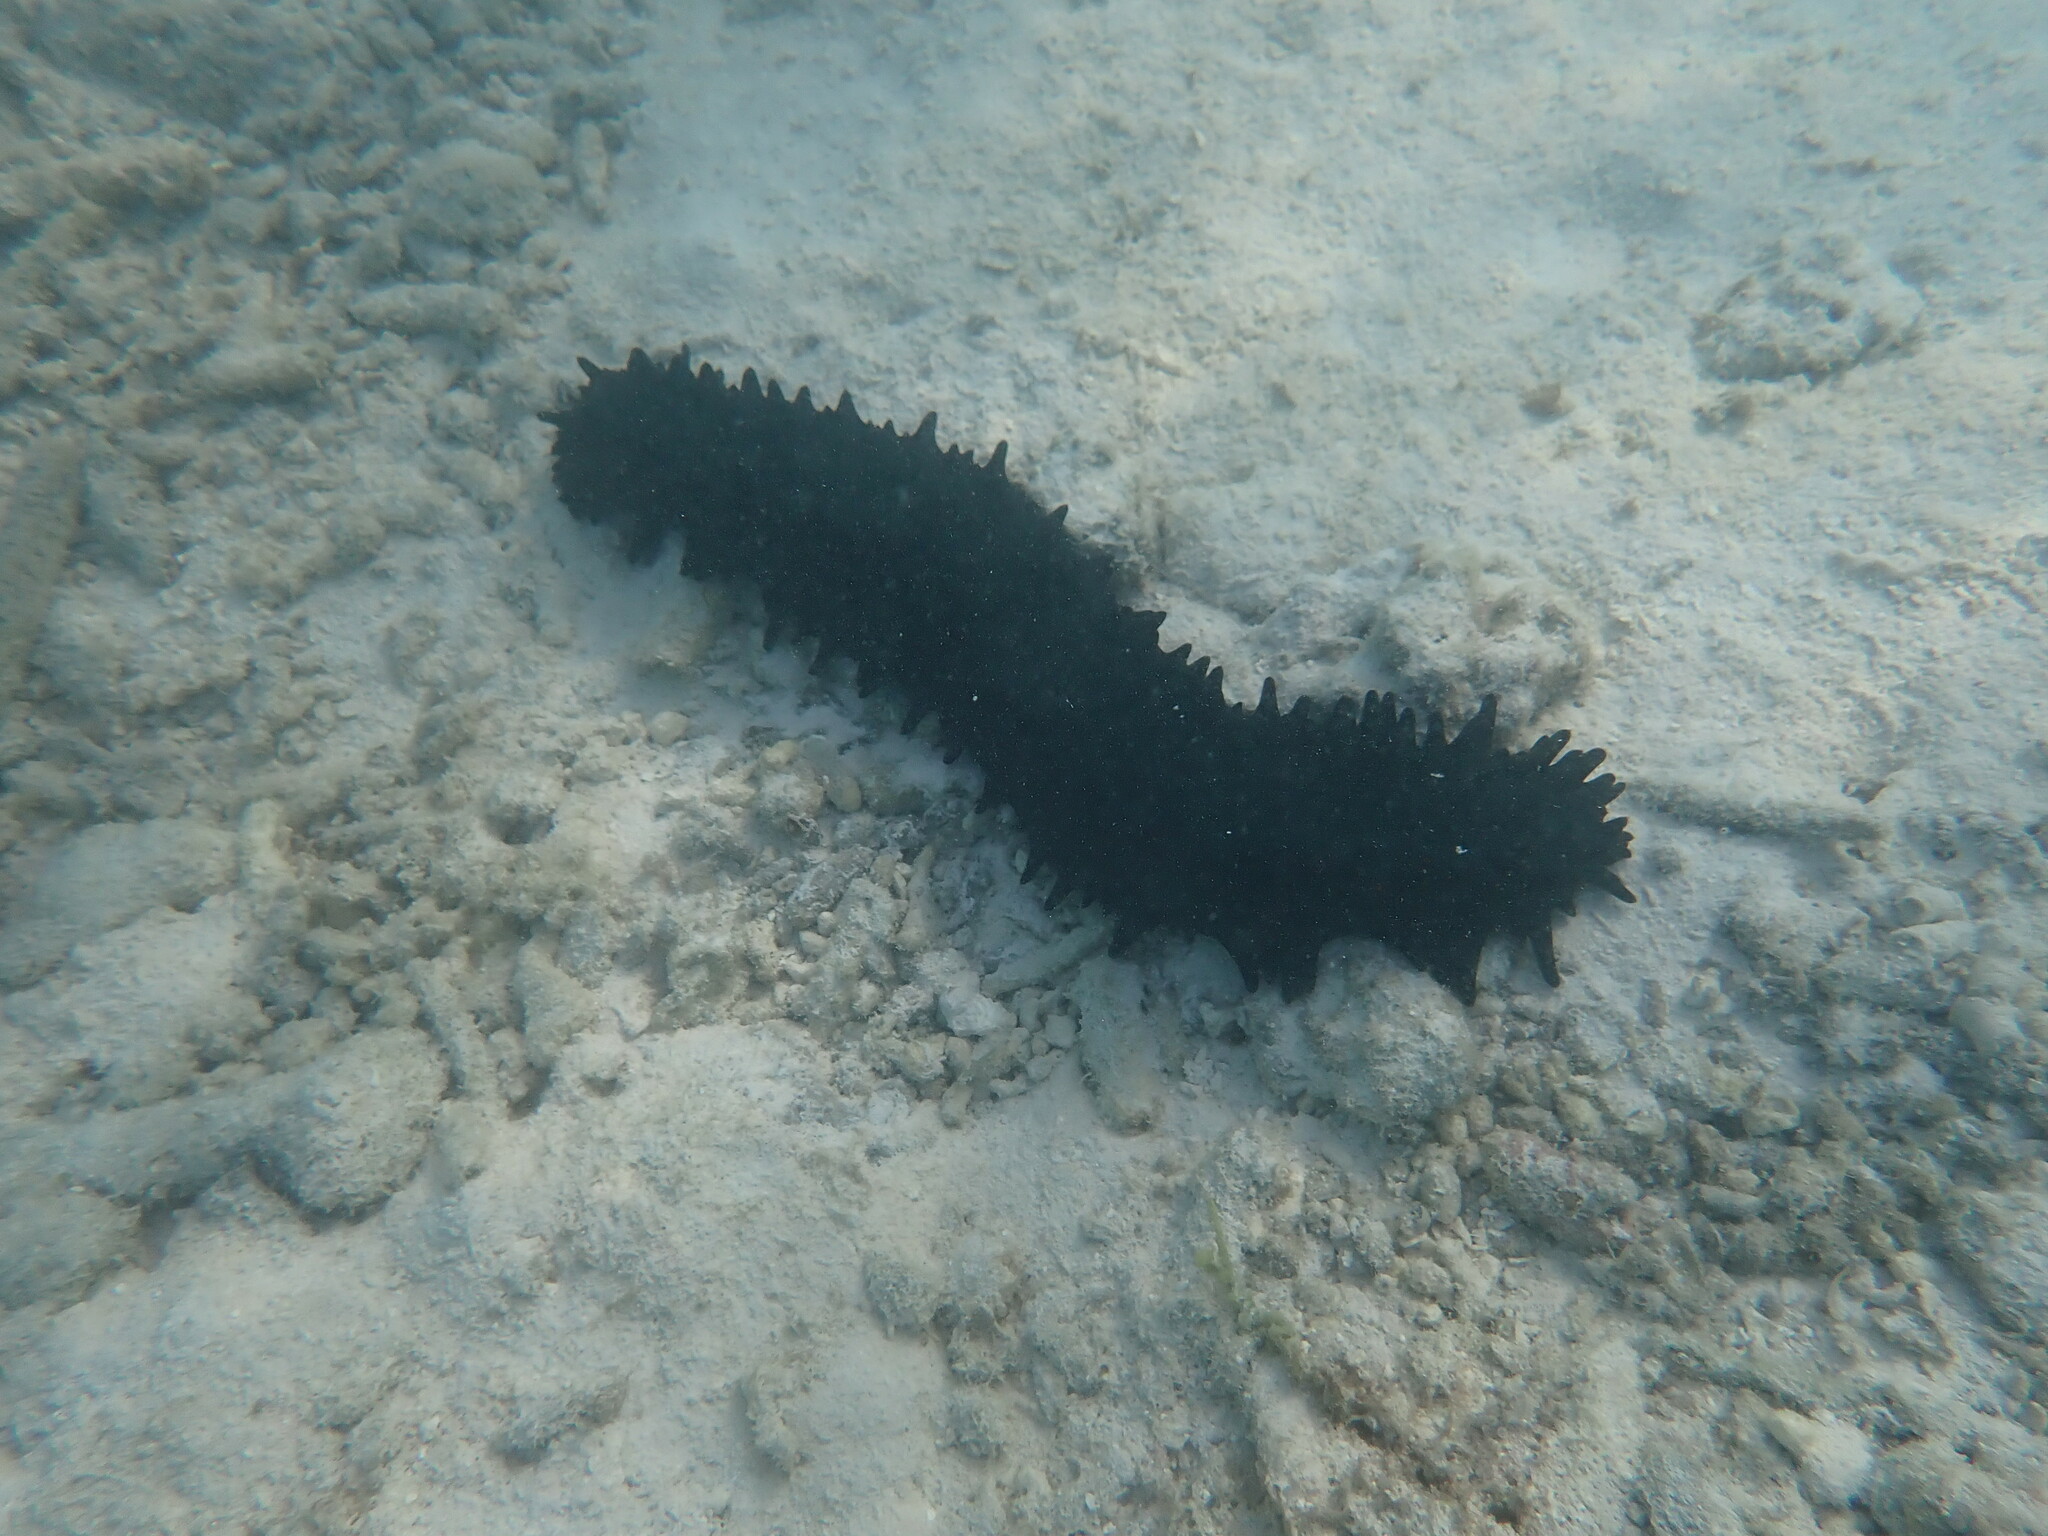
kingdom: Animalia
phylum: Echinodermata
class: Holothuroidea
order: Synallactida
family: Stichopodidae
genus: Stichopus
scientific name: Stichopus chloronotus
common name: Greenfish
